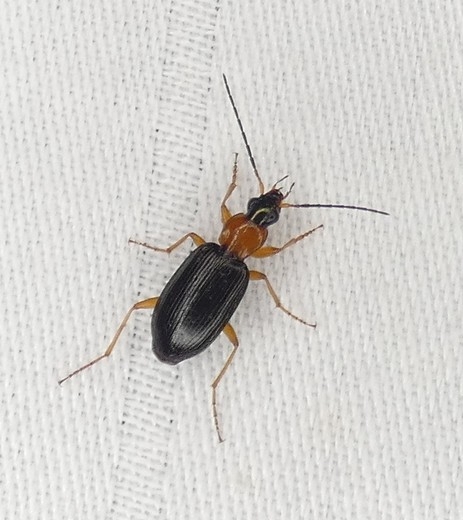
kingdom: Animalia
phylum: Arthropoda
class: Insecta
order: Coleoptera
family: Carabidae
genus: Agonum
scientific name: Agonum decorum
